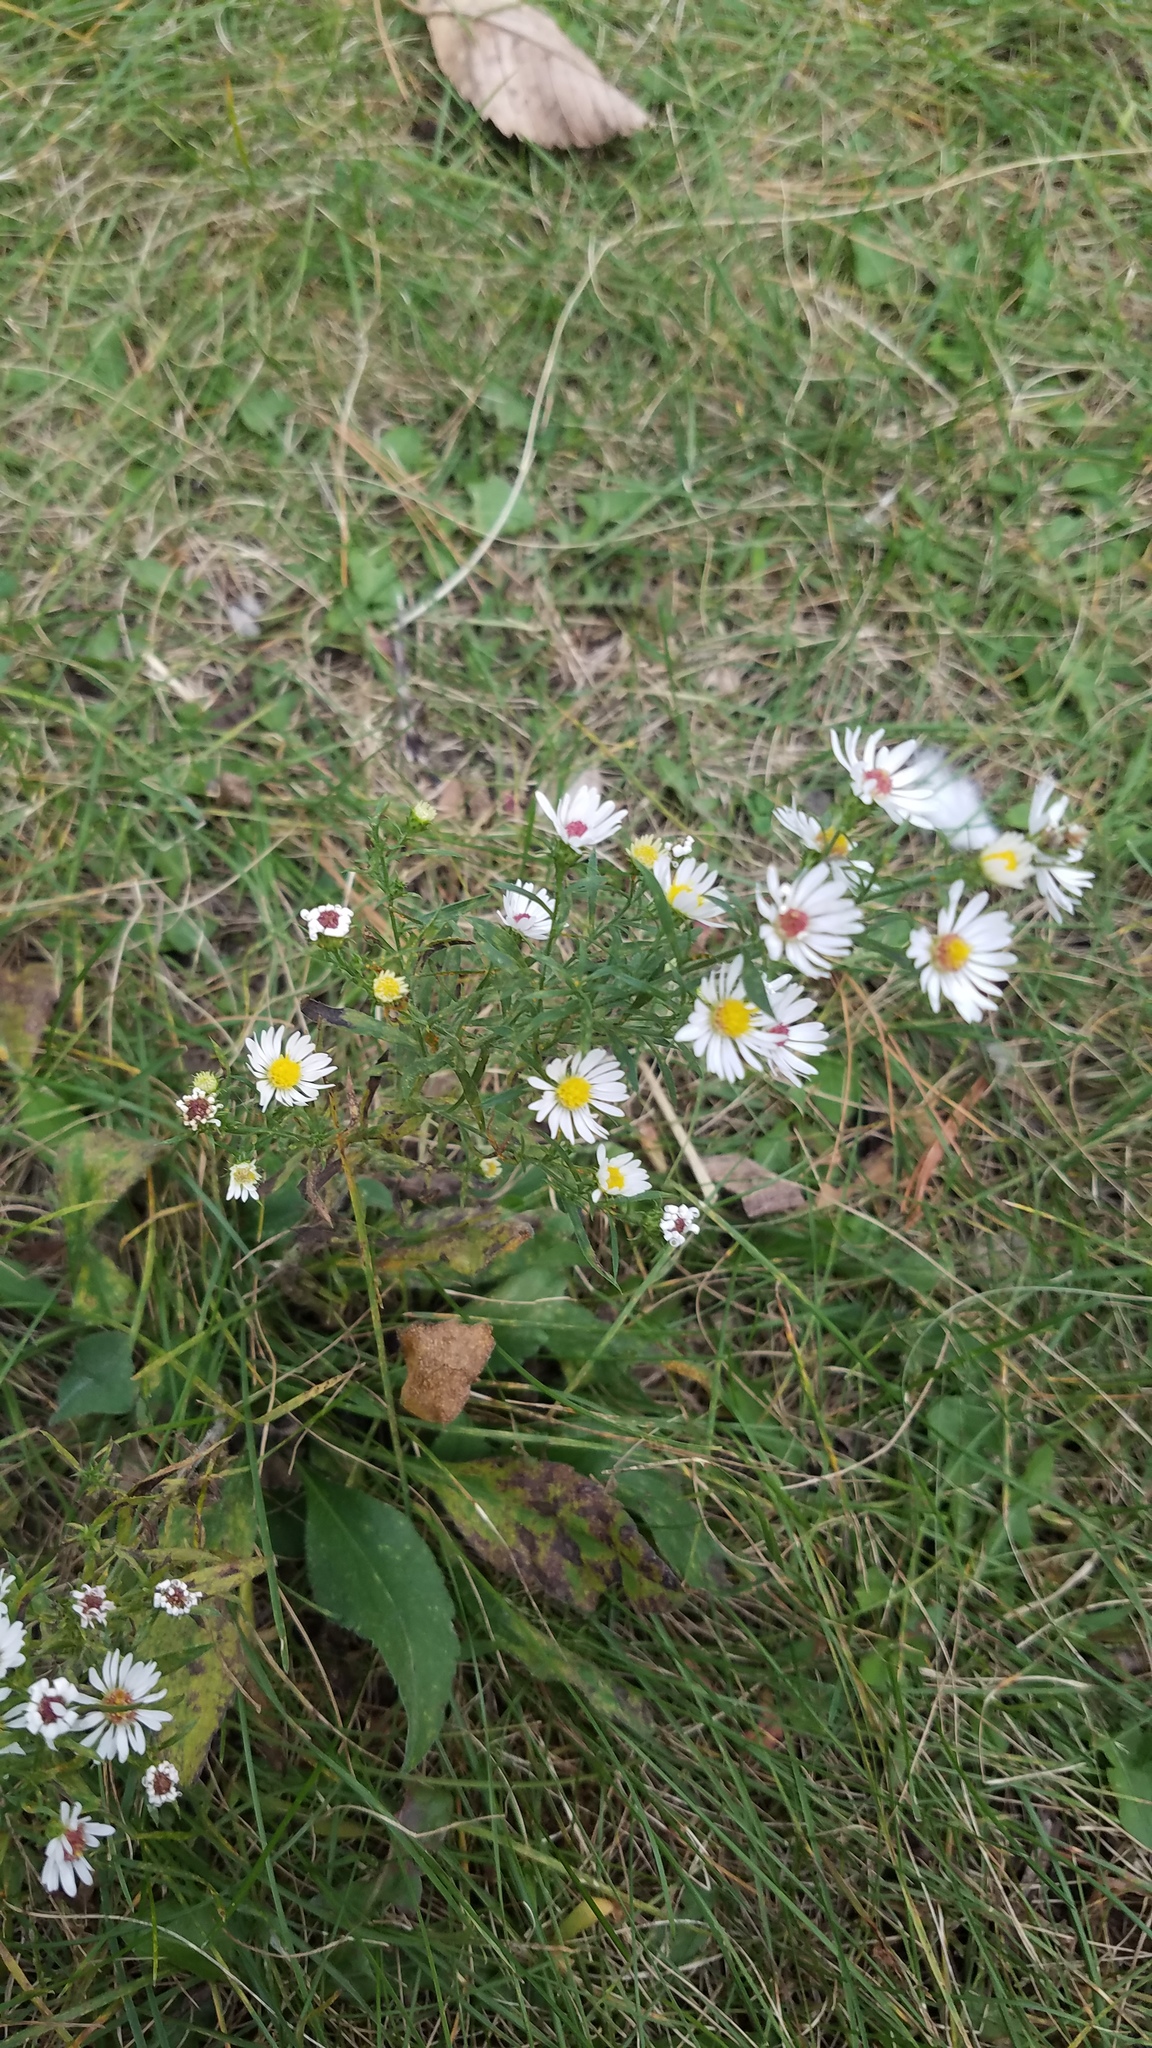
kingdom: Plantae
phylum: Tracheophyta
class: Magnoliopsida
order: Asterales
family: Asteraceae
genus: Symphyotrichum
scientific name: Symphyotrichum pilosum
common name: Awl aster
